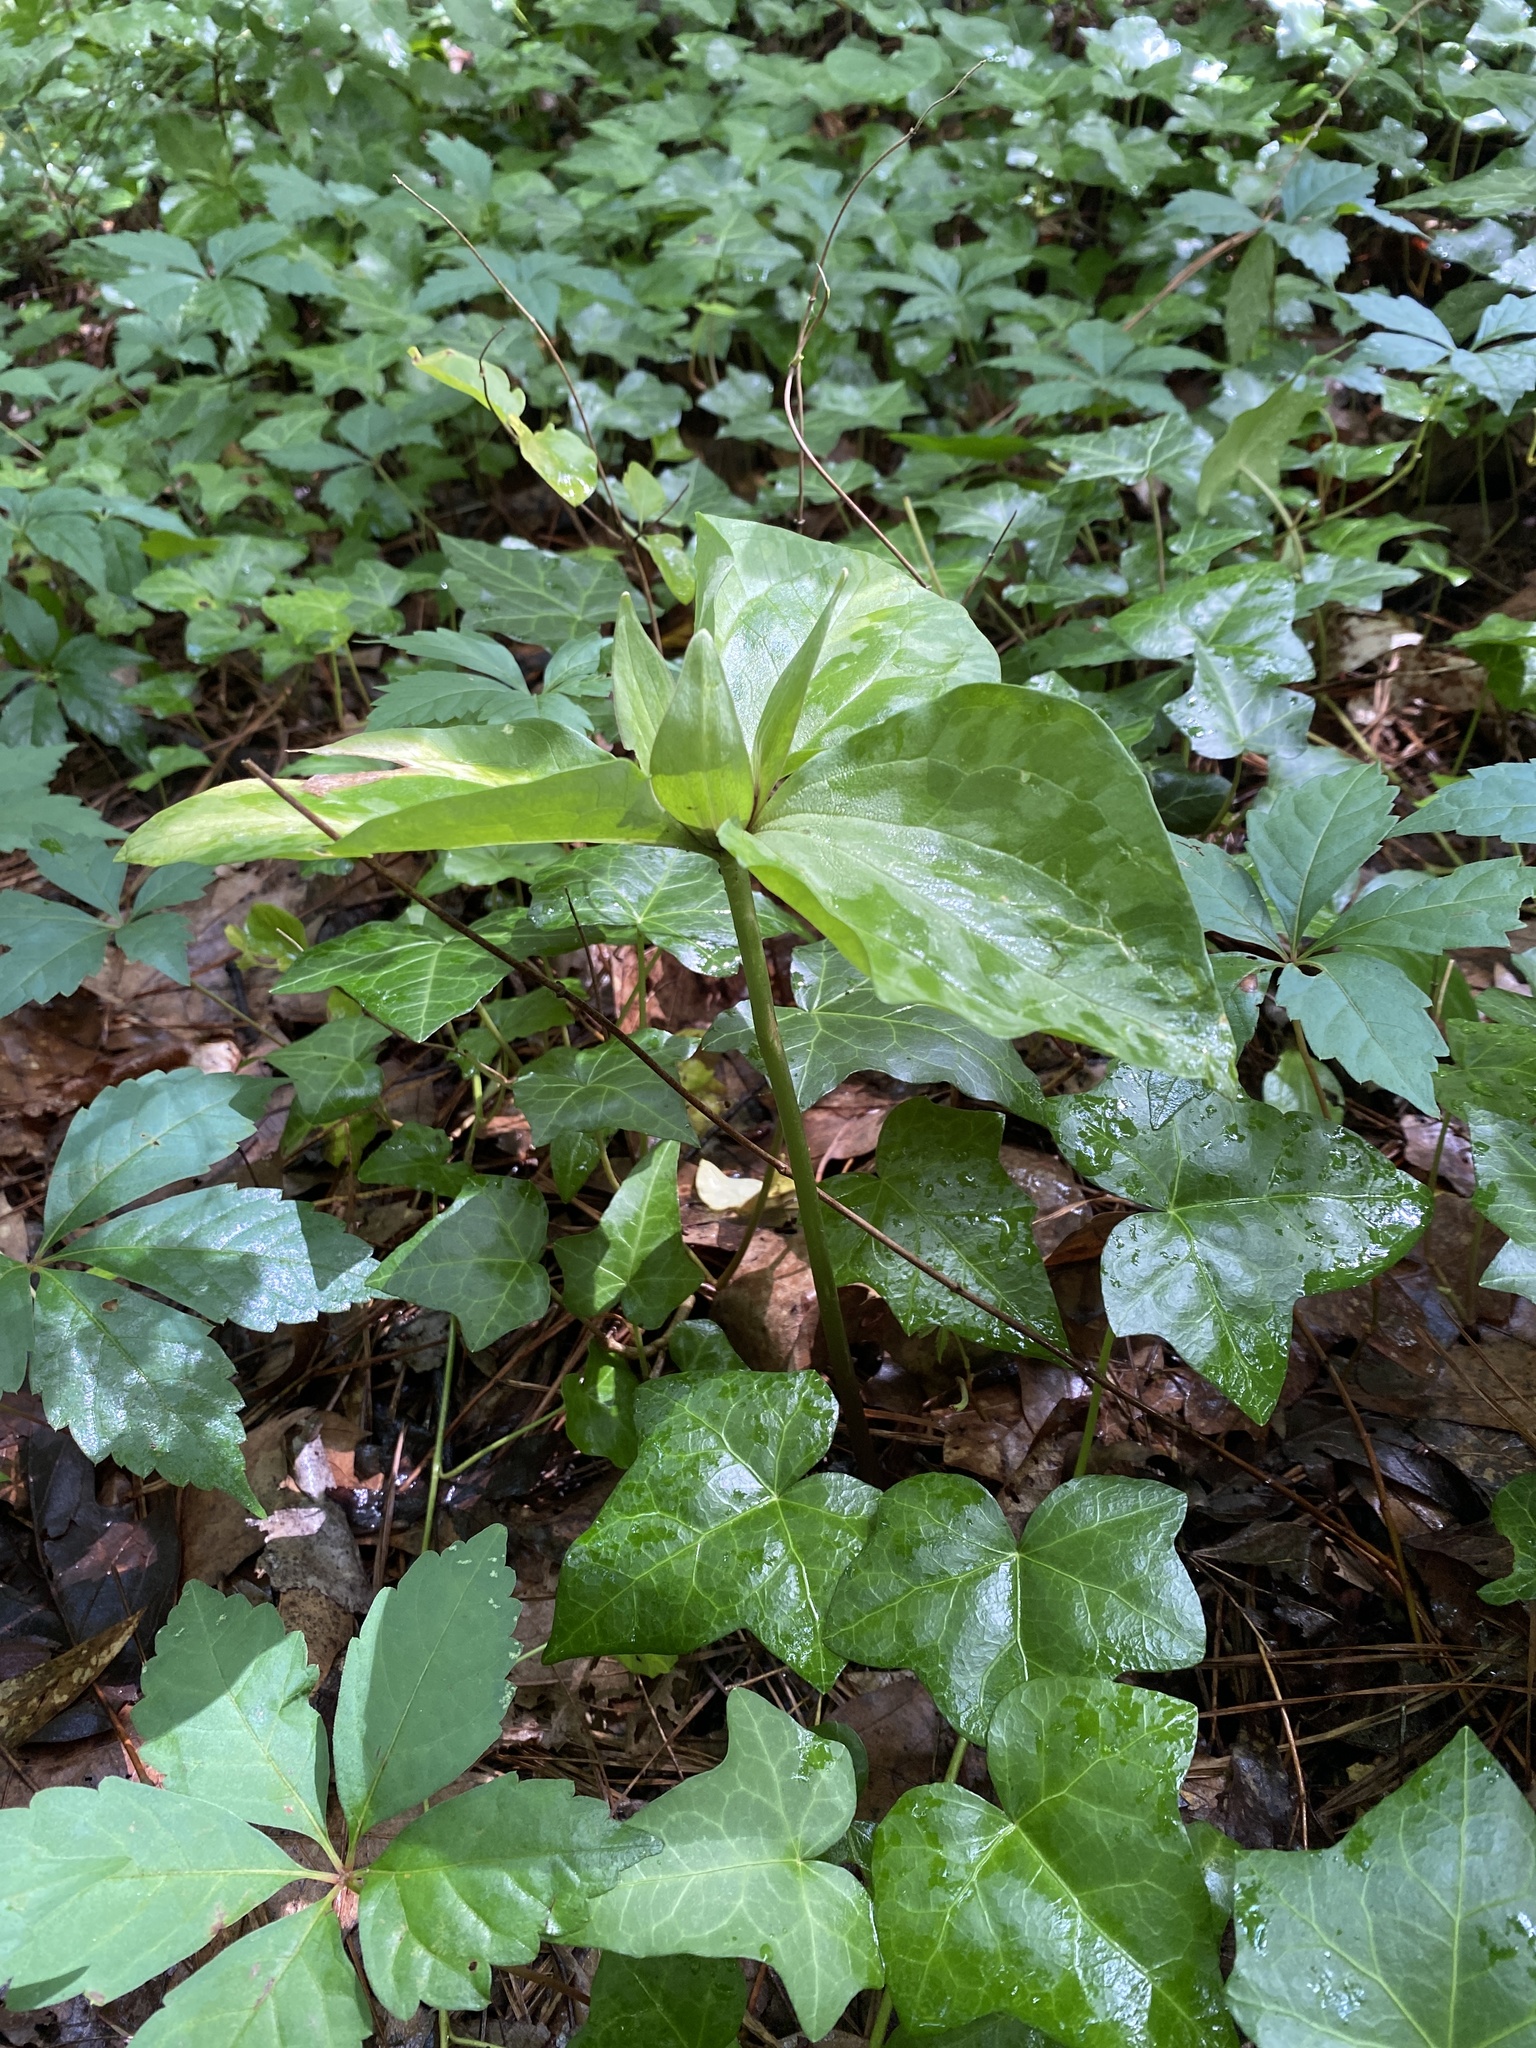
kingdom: Plantae
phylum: Tracheophyta
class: Liliopsida
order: Liliales
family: Melanthiaceae
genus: Trillium
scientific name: Trillium cuneatum
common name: Cuneate trillium
